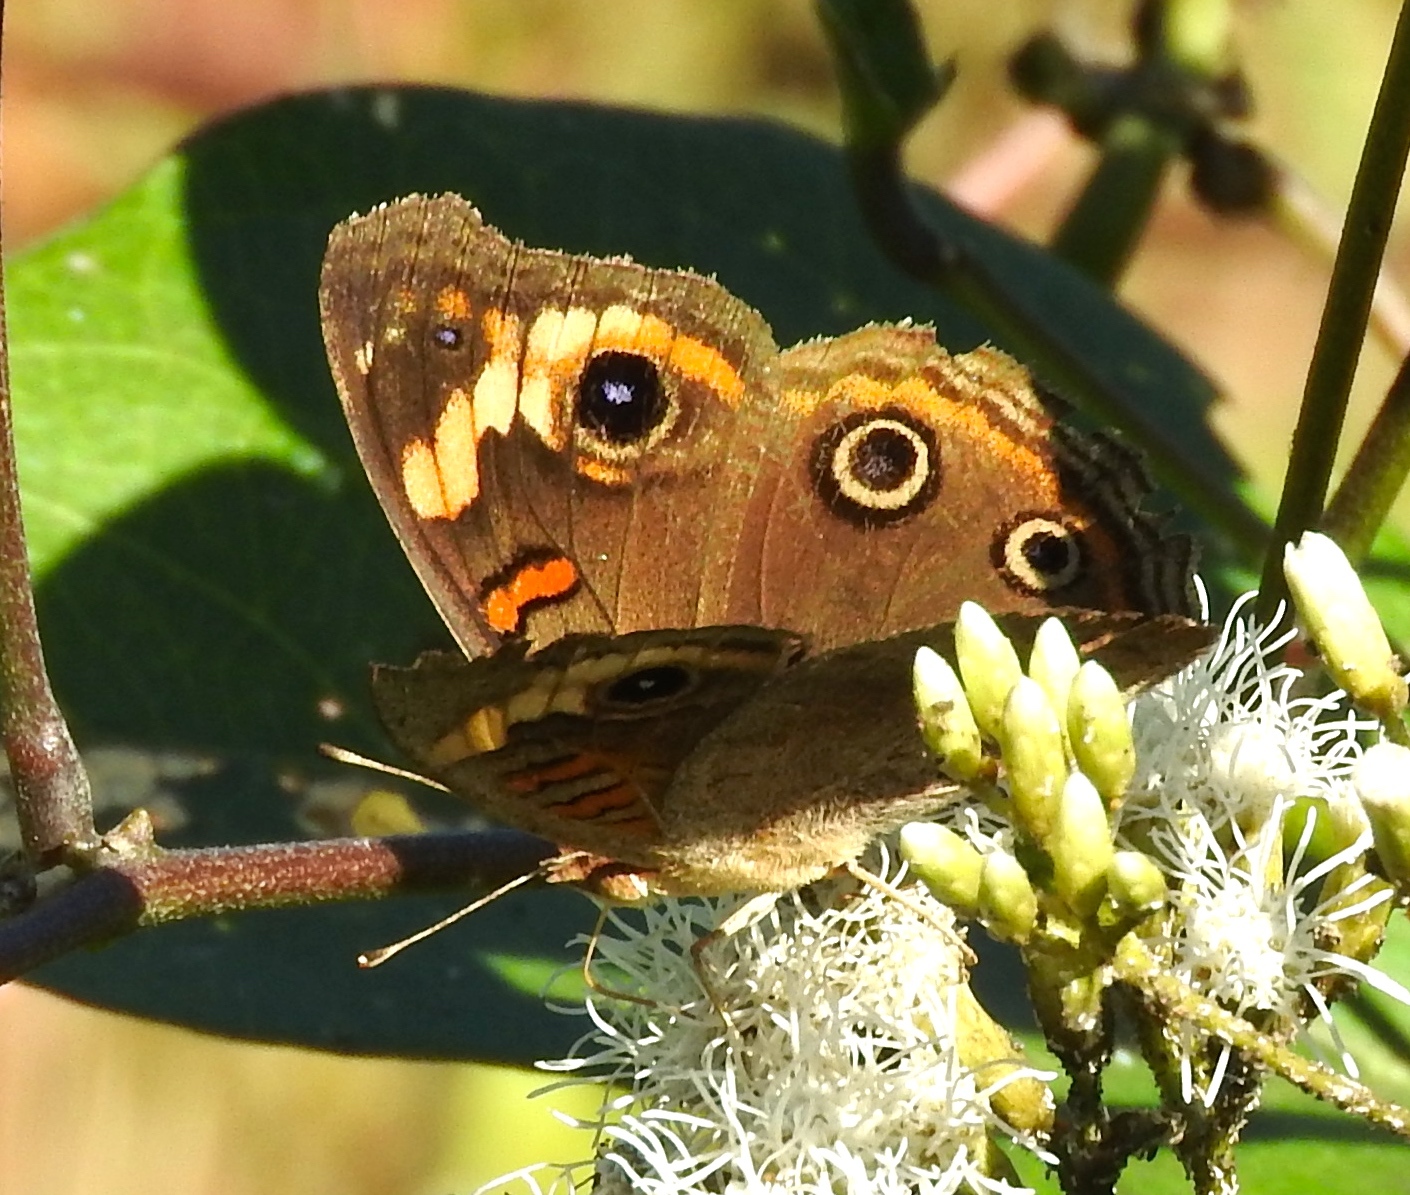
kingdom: Animalia
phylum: Arthropoda
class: Insecta
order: Lepidoptera
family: Nymphalidae
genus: Junonia
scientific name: Junonia pacoma
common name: Pacific mangrove buckeye
